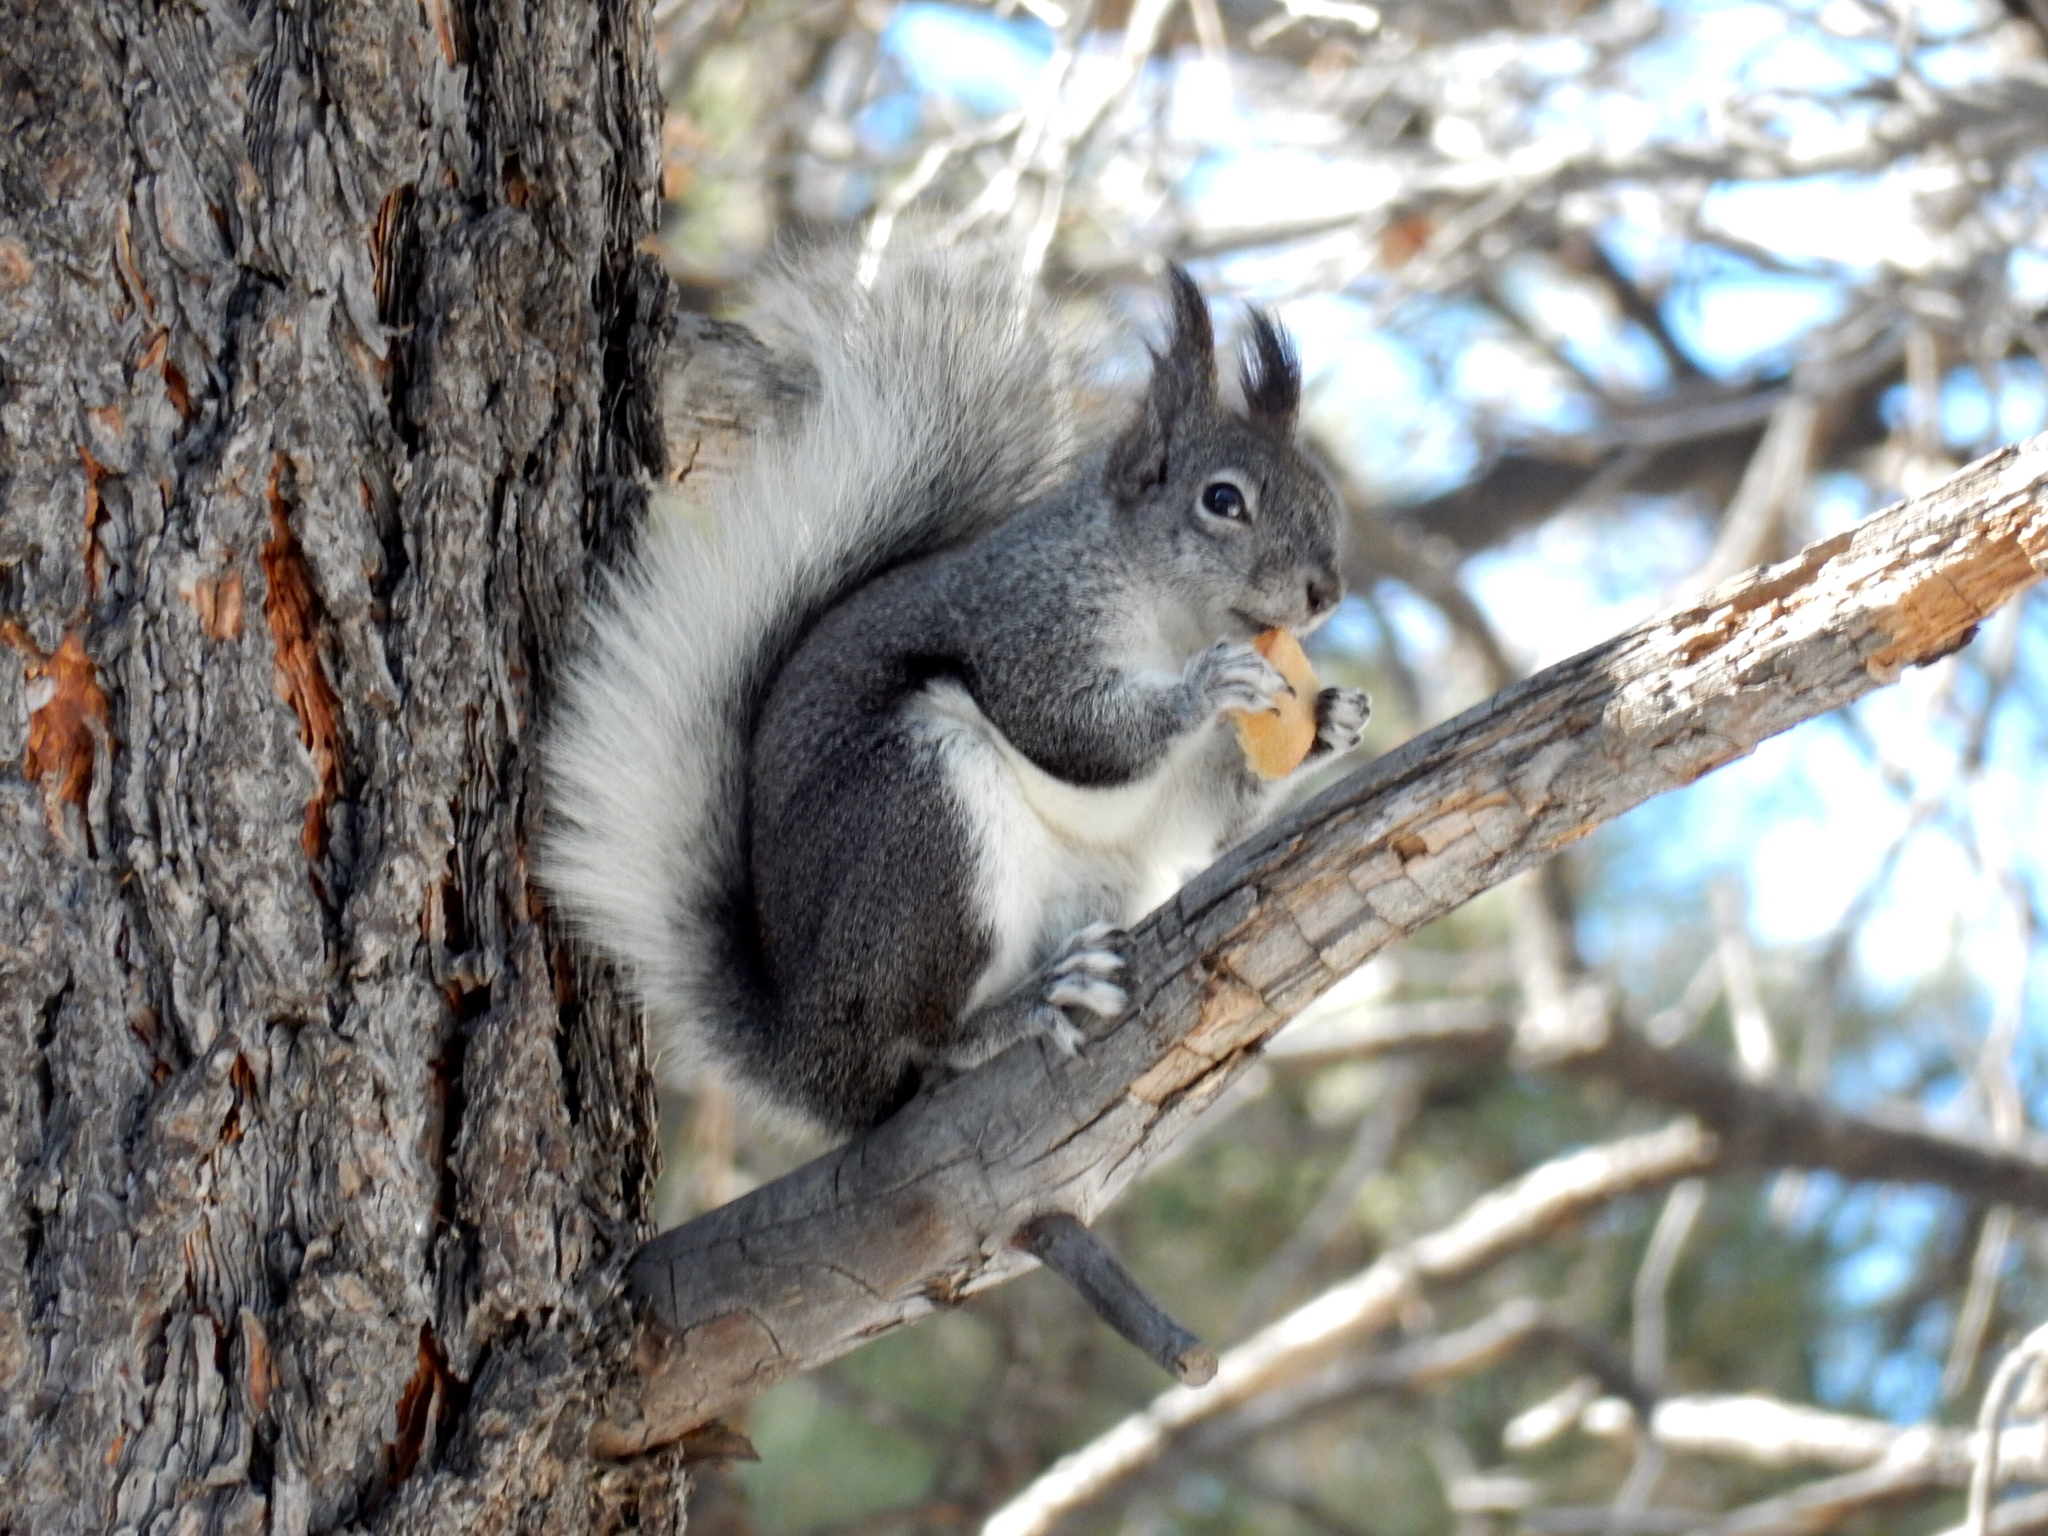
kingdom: Animalia
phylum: Chordata
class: Mammalia
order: Rodentia
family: Sciuridae
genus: Sciurus
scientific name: Sciurus aberti
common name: Abert's squirrel
